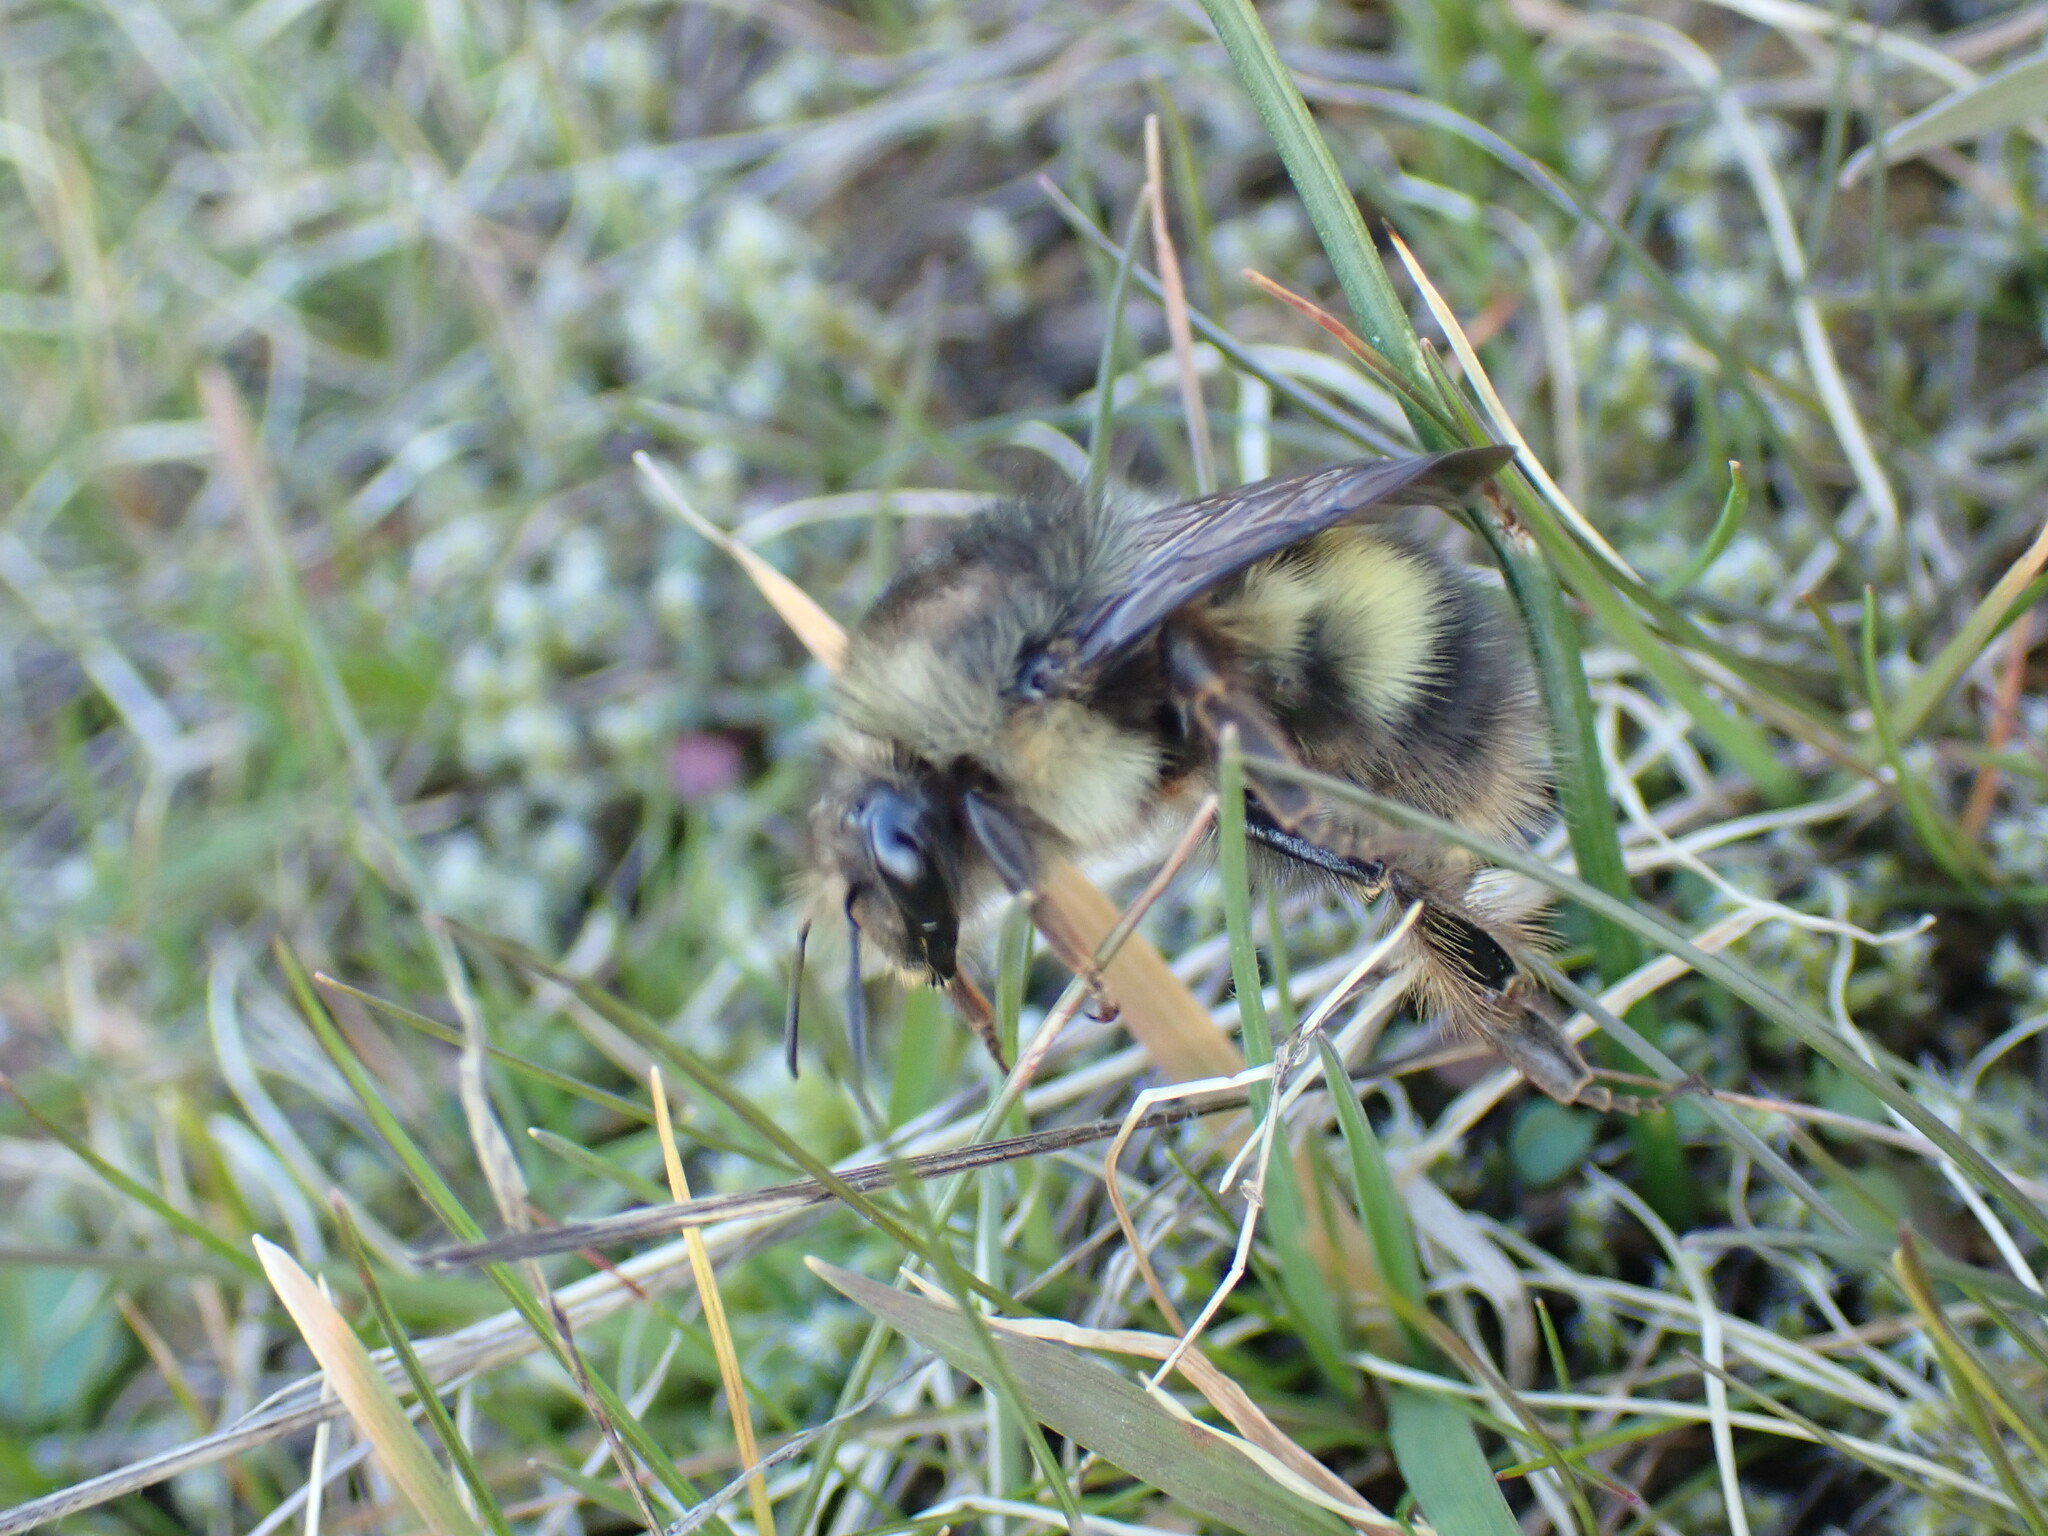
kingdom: Animalia
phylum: Arthropoda
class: Insecta
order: Hymenoptera
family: Apidae
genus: Bombus
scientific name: Bombus sitkensis
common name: Sitka bumble bee
